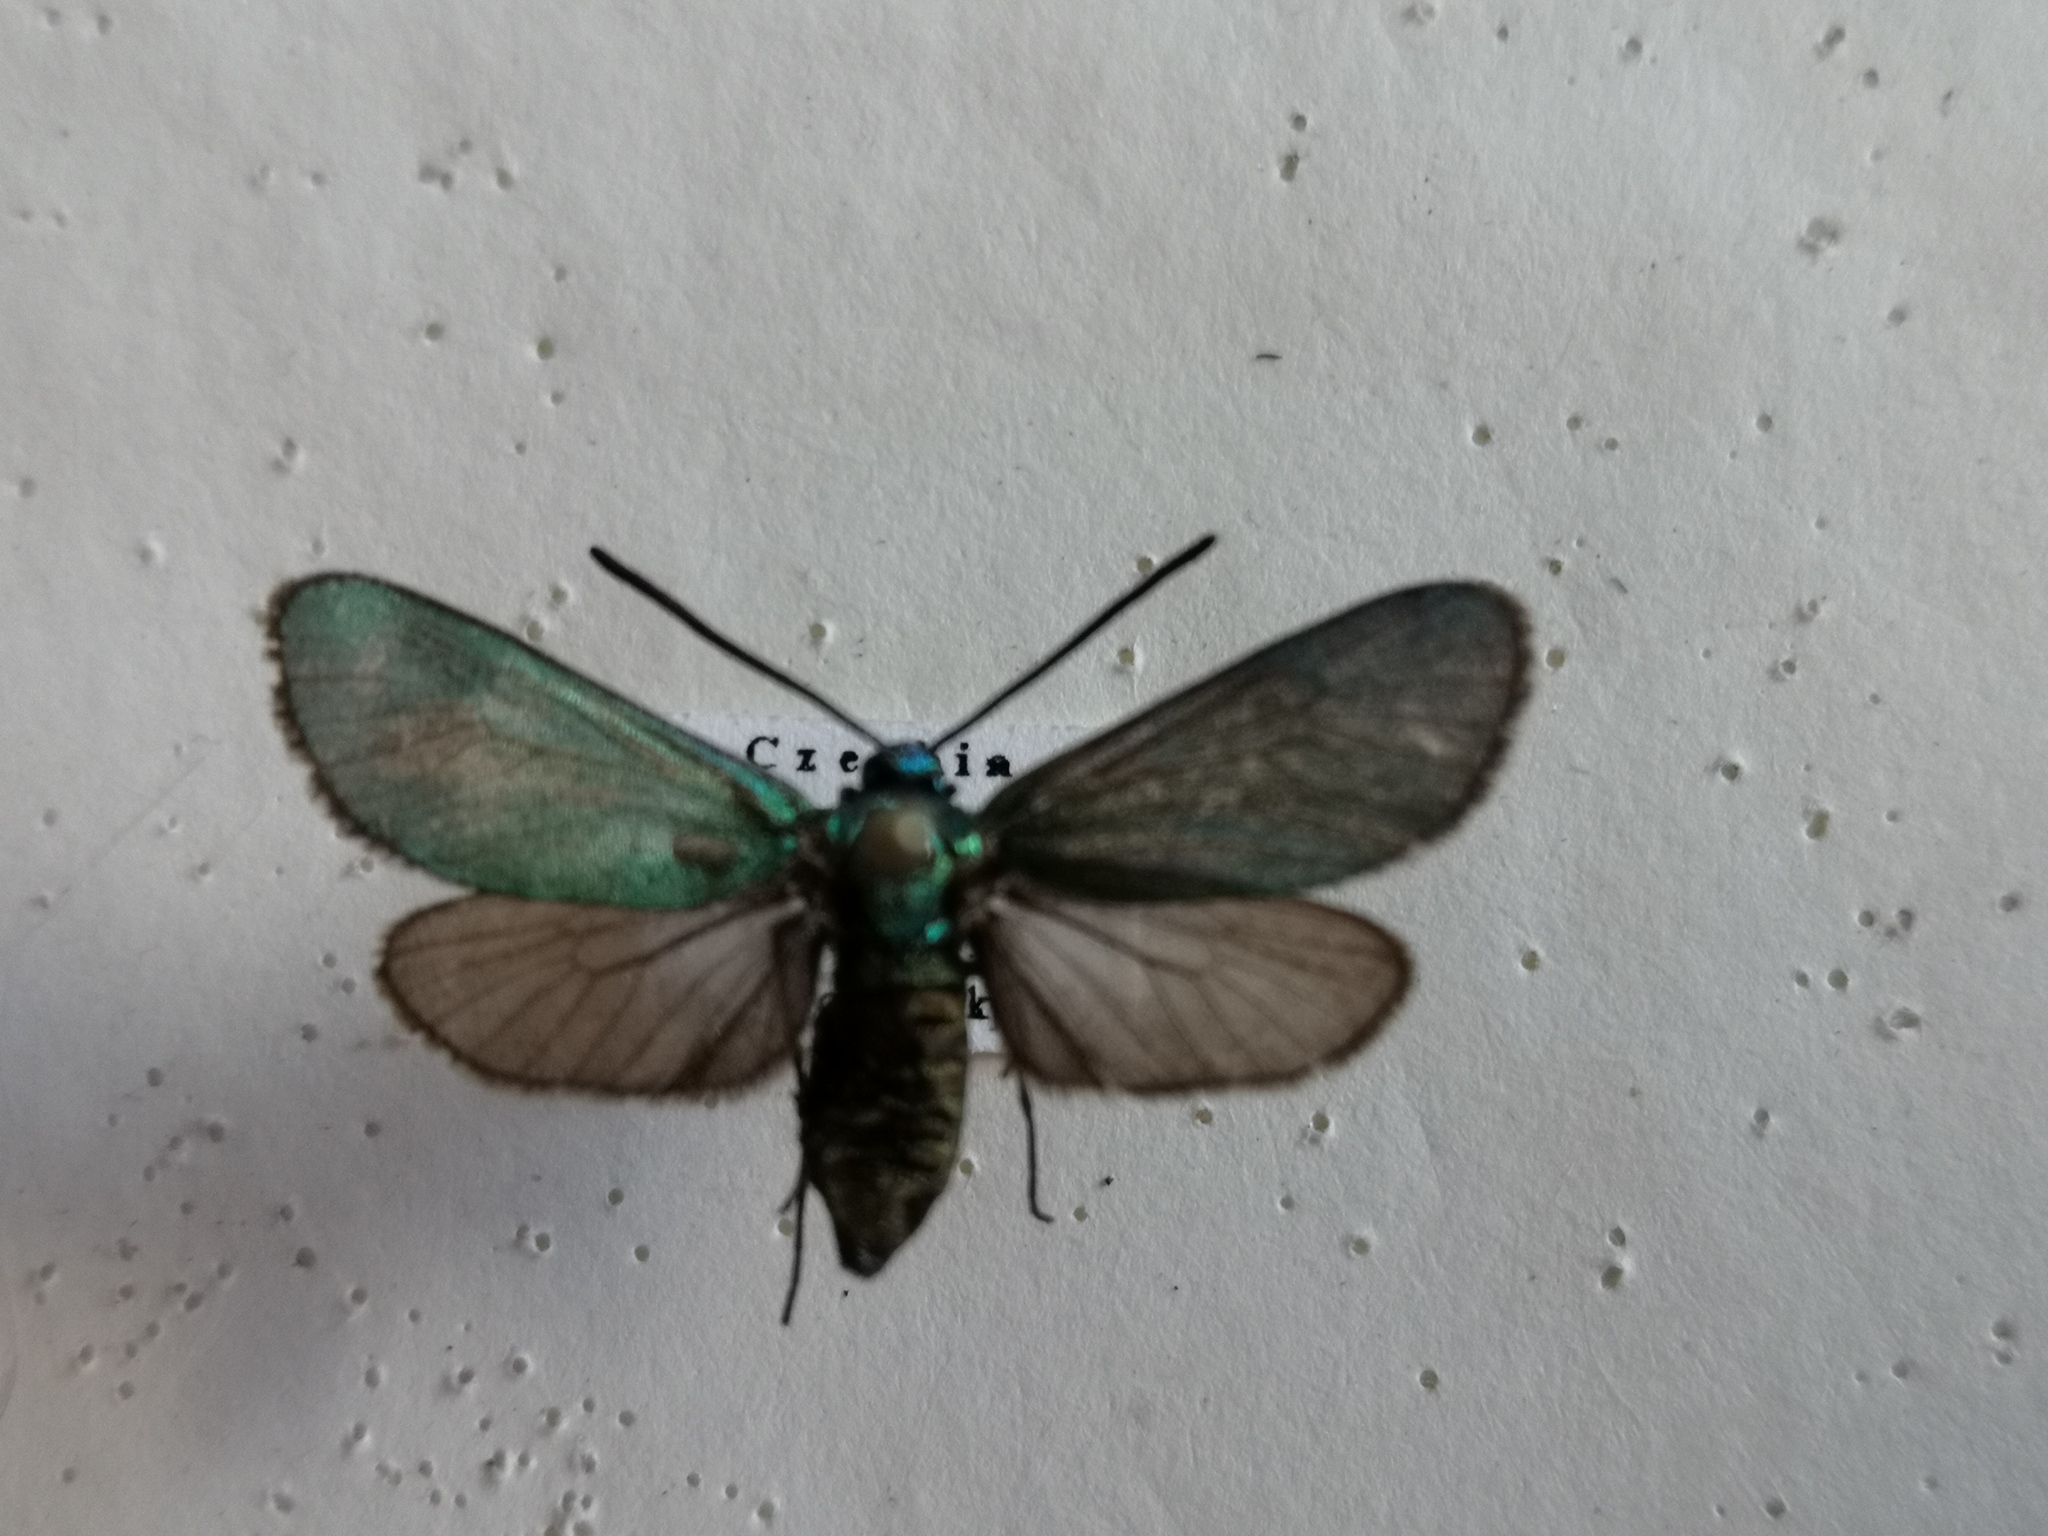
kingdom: Animalia
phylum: Arthropoda
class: Insecta
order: Lepidoptera
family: Zygaenidae
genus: Adscita
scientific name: Adscita statices
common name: Forester
